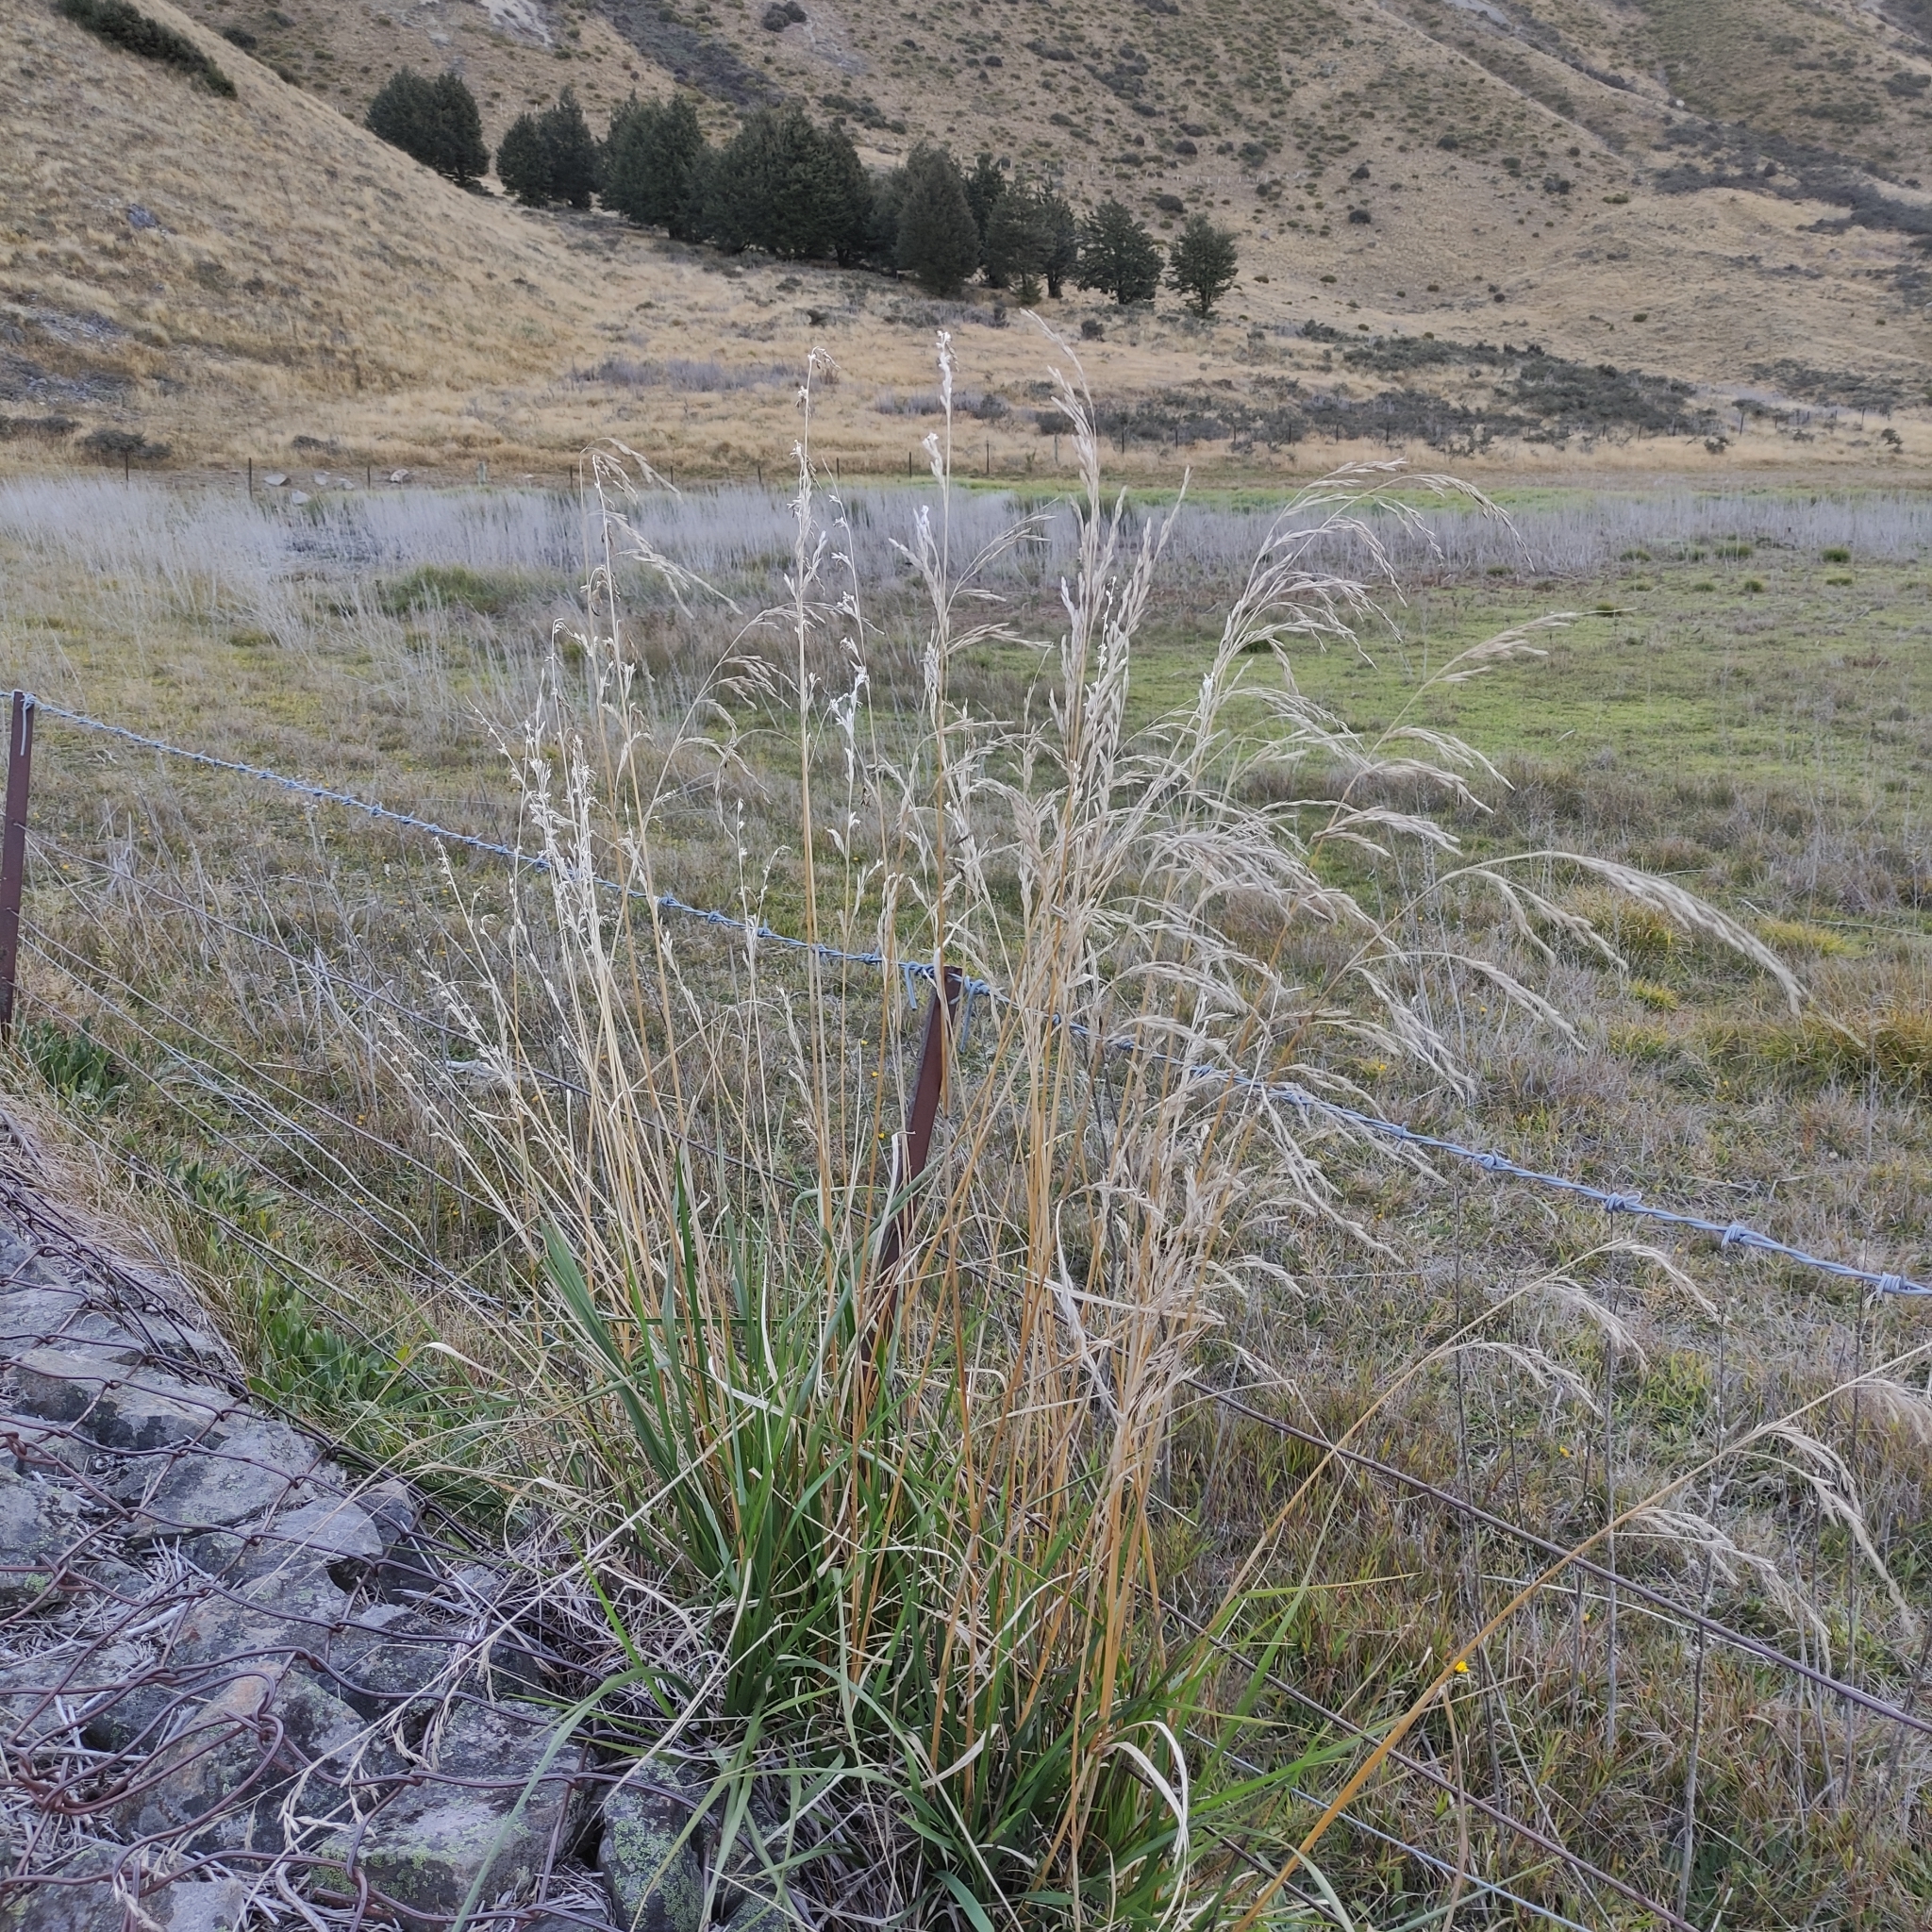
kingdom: Plantae
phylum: Tracheophyta
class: Liliopsida
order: Poales
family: Poaceae
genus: Lolium
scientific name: Lolium arundinaceum
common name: Reed fescue
